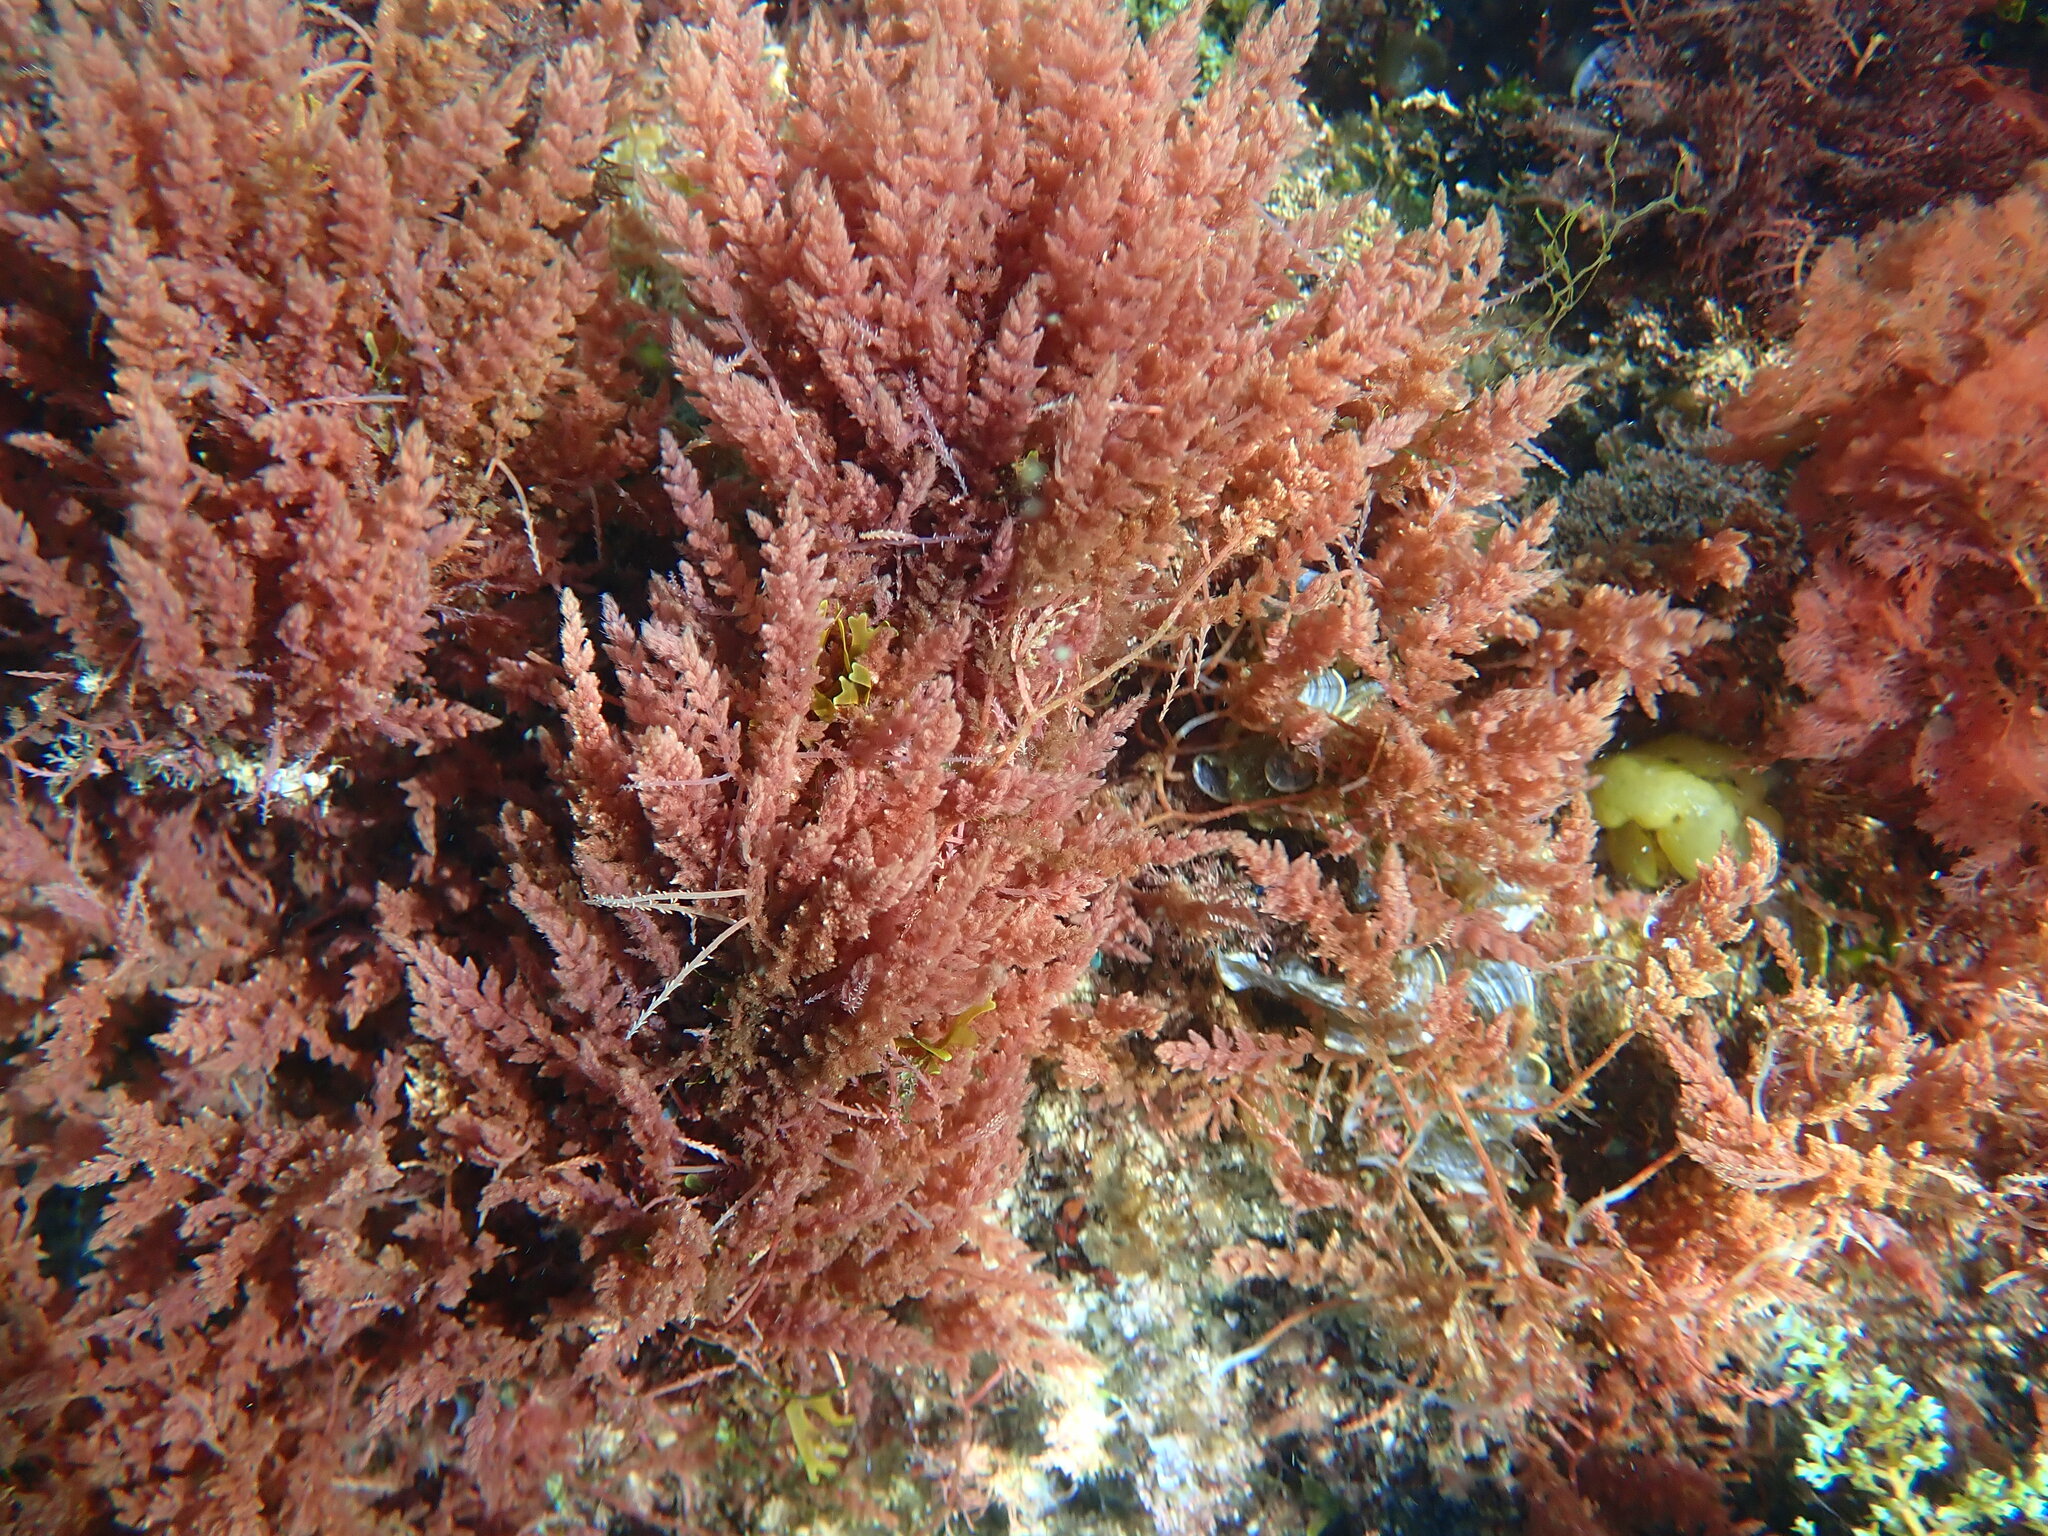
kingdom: Plantae
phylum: Rhodophyta
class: Florideophyceae
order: Bonnemaisoniales
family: Bonnemaisoniaceae
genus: Asparagopsis
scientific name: Asparagopsis armata
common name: Harpoon weed
